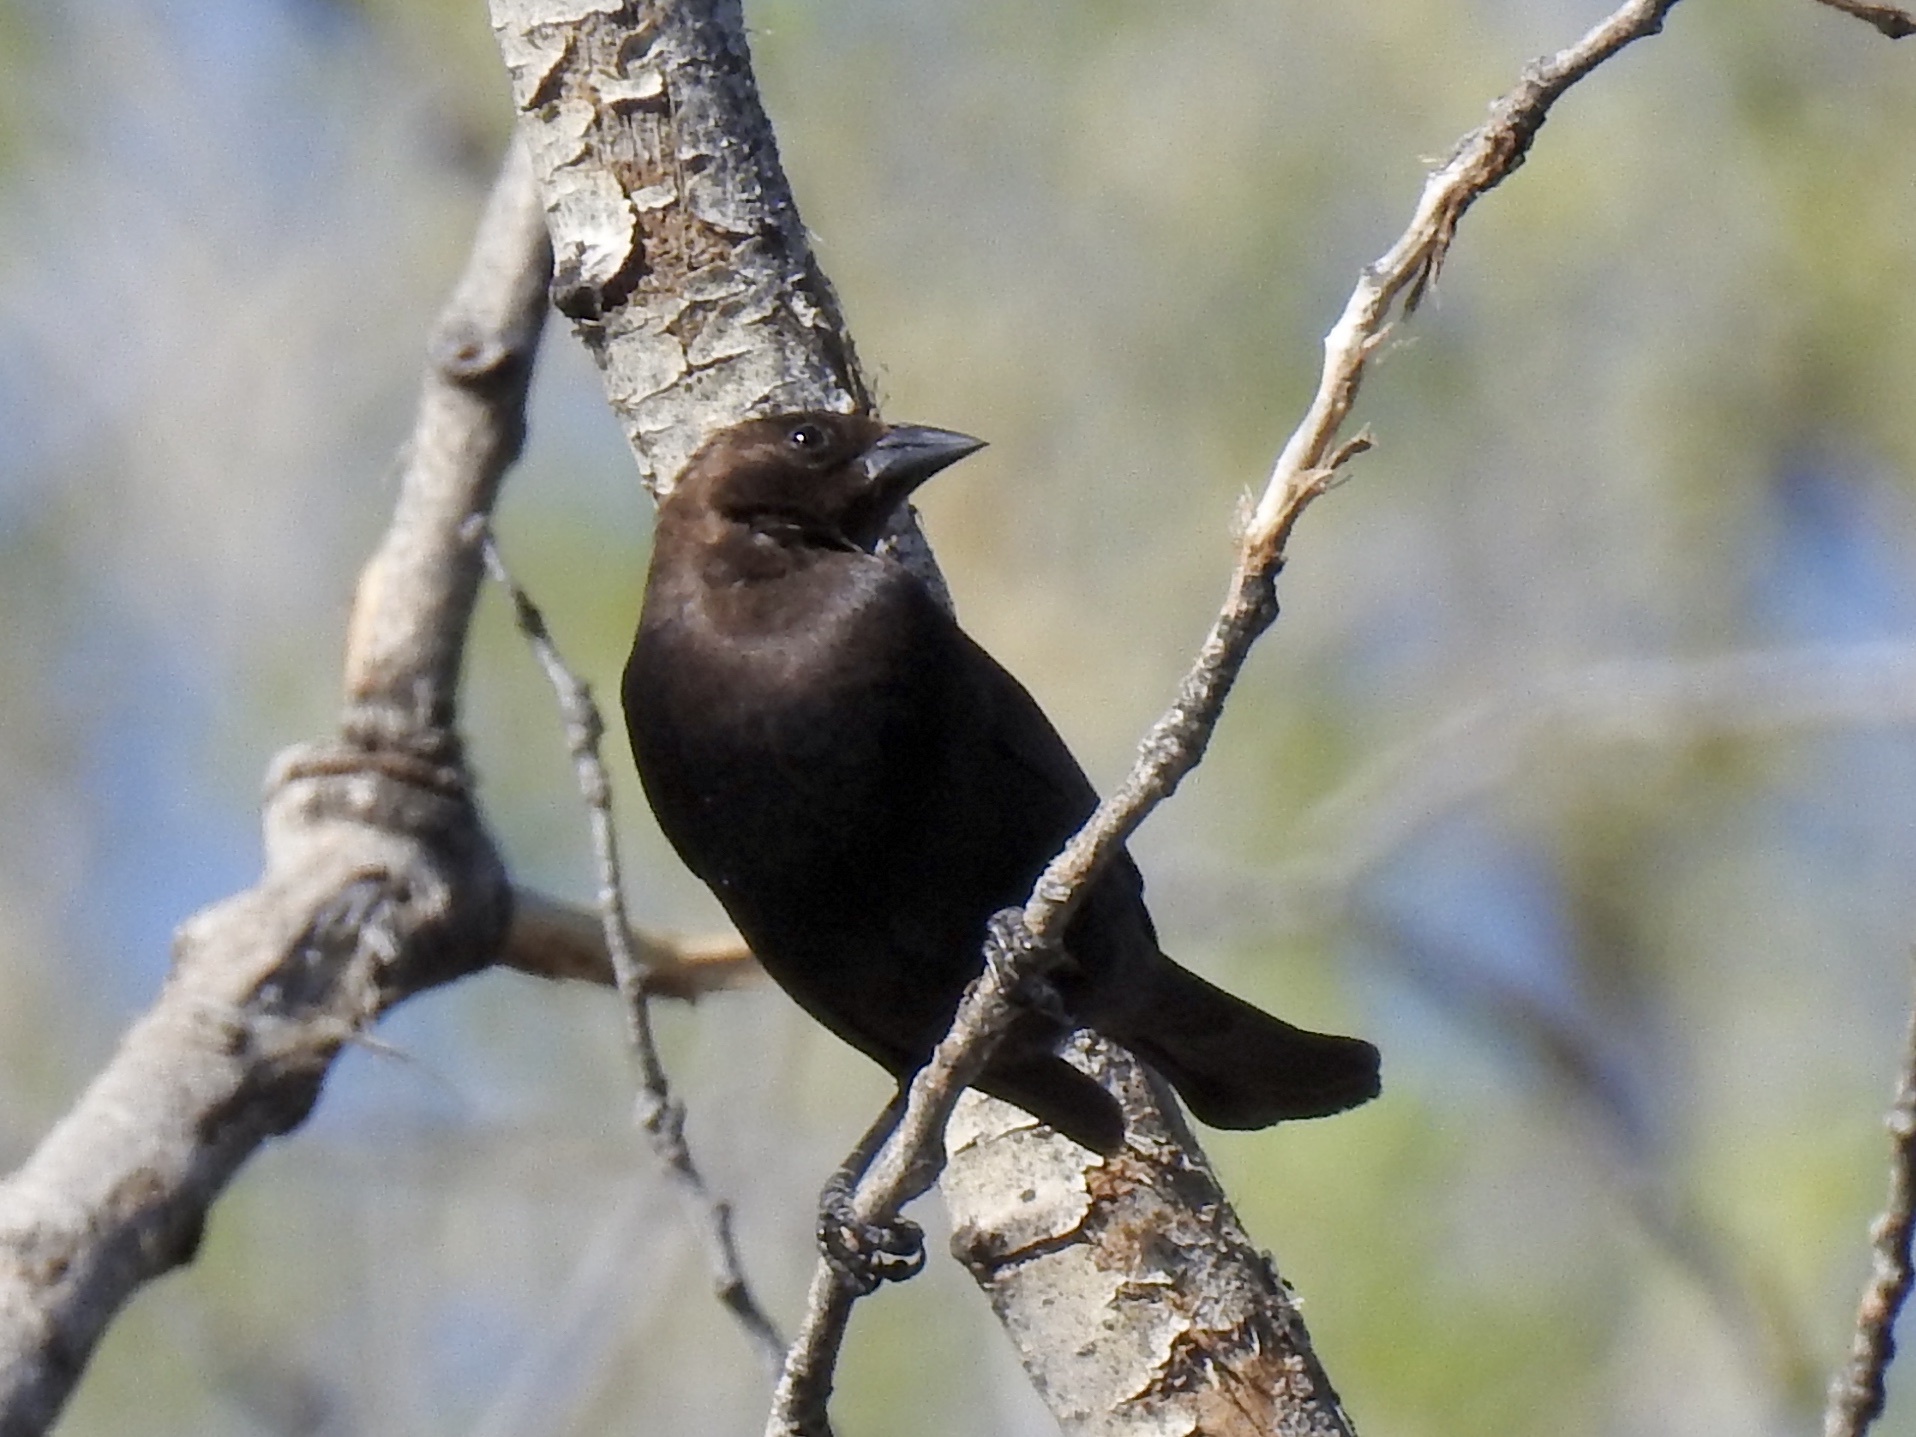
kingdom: Animalia
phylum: Chordata
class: Aves
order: Passeriformes
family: Icteridae
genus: Molothrus
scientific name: Molothrus ater
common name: Brown-headed cowbird
